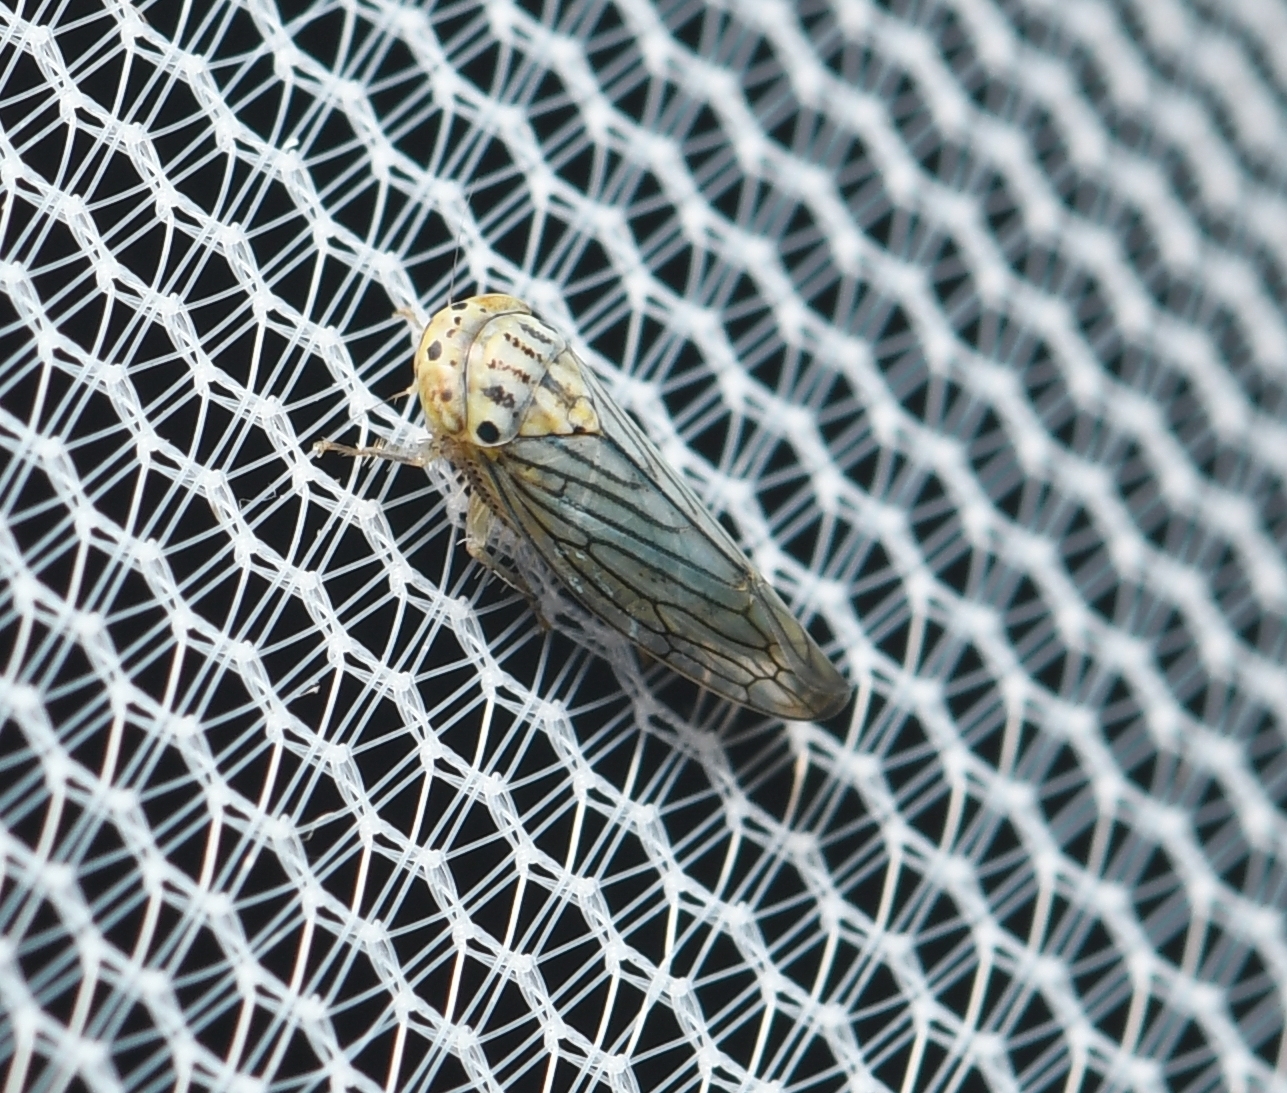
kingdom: Animalia
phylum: Arthropoda
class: Insecta
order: Hemiptera
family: Cicadellidae
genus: Ollarianus
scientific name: Ollarianus armus
